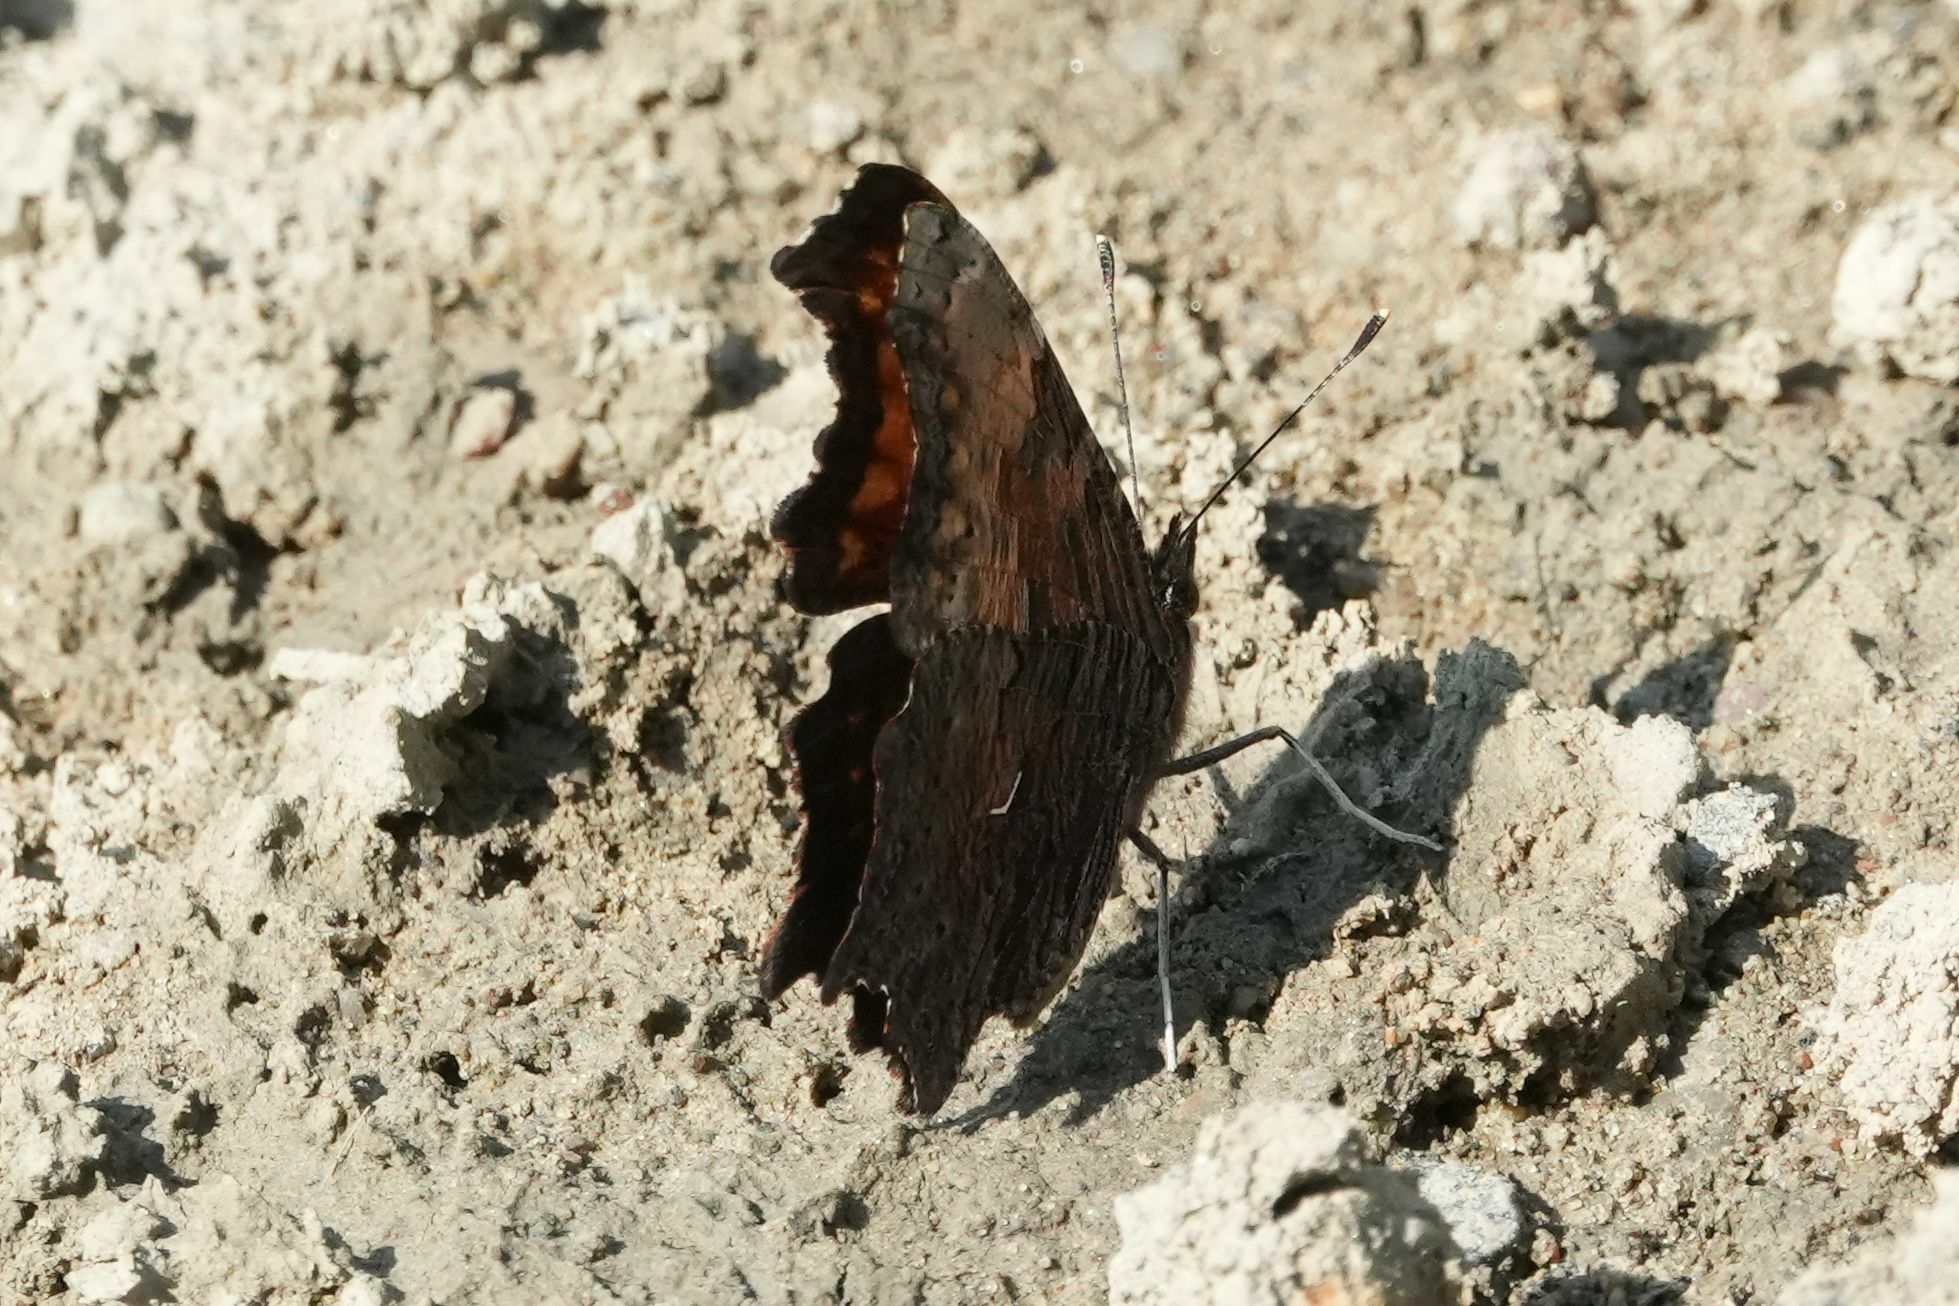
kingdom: Animalia
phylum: Arthropoda
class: Insecta
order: Lepidoptera
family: Nymphalidae
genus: Polygonia
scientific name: Polygonia progne
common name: Gray comma
